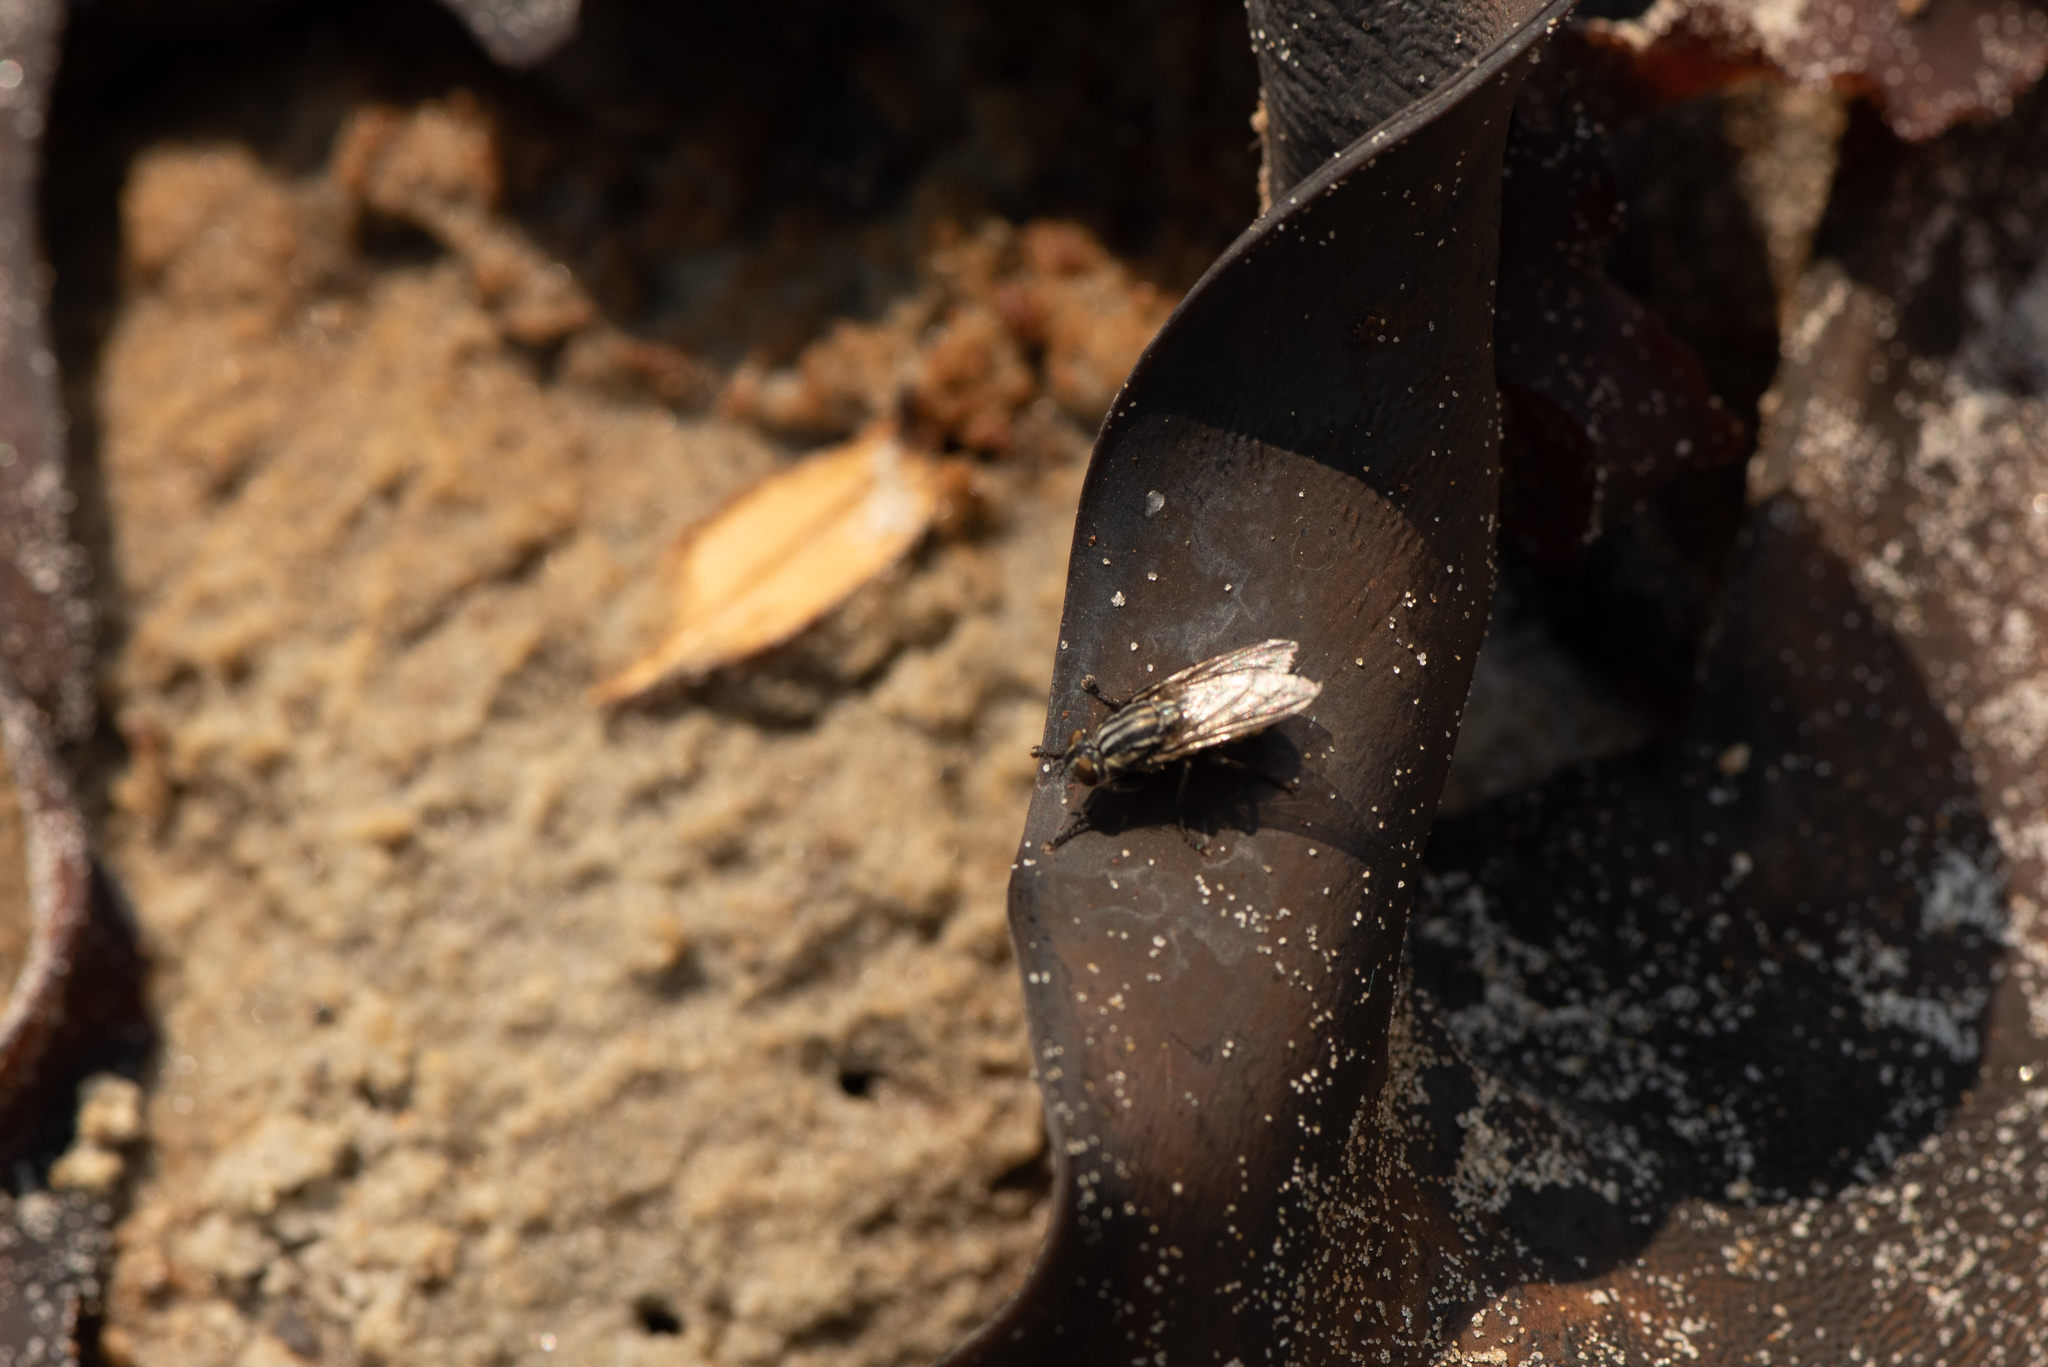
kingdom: Animalia
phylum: Arthropoda
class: Insecta
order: Diptera
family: Sarcophagidae
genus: Oxysarcodexia
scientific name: Oxysarcodexia varia
